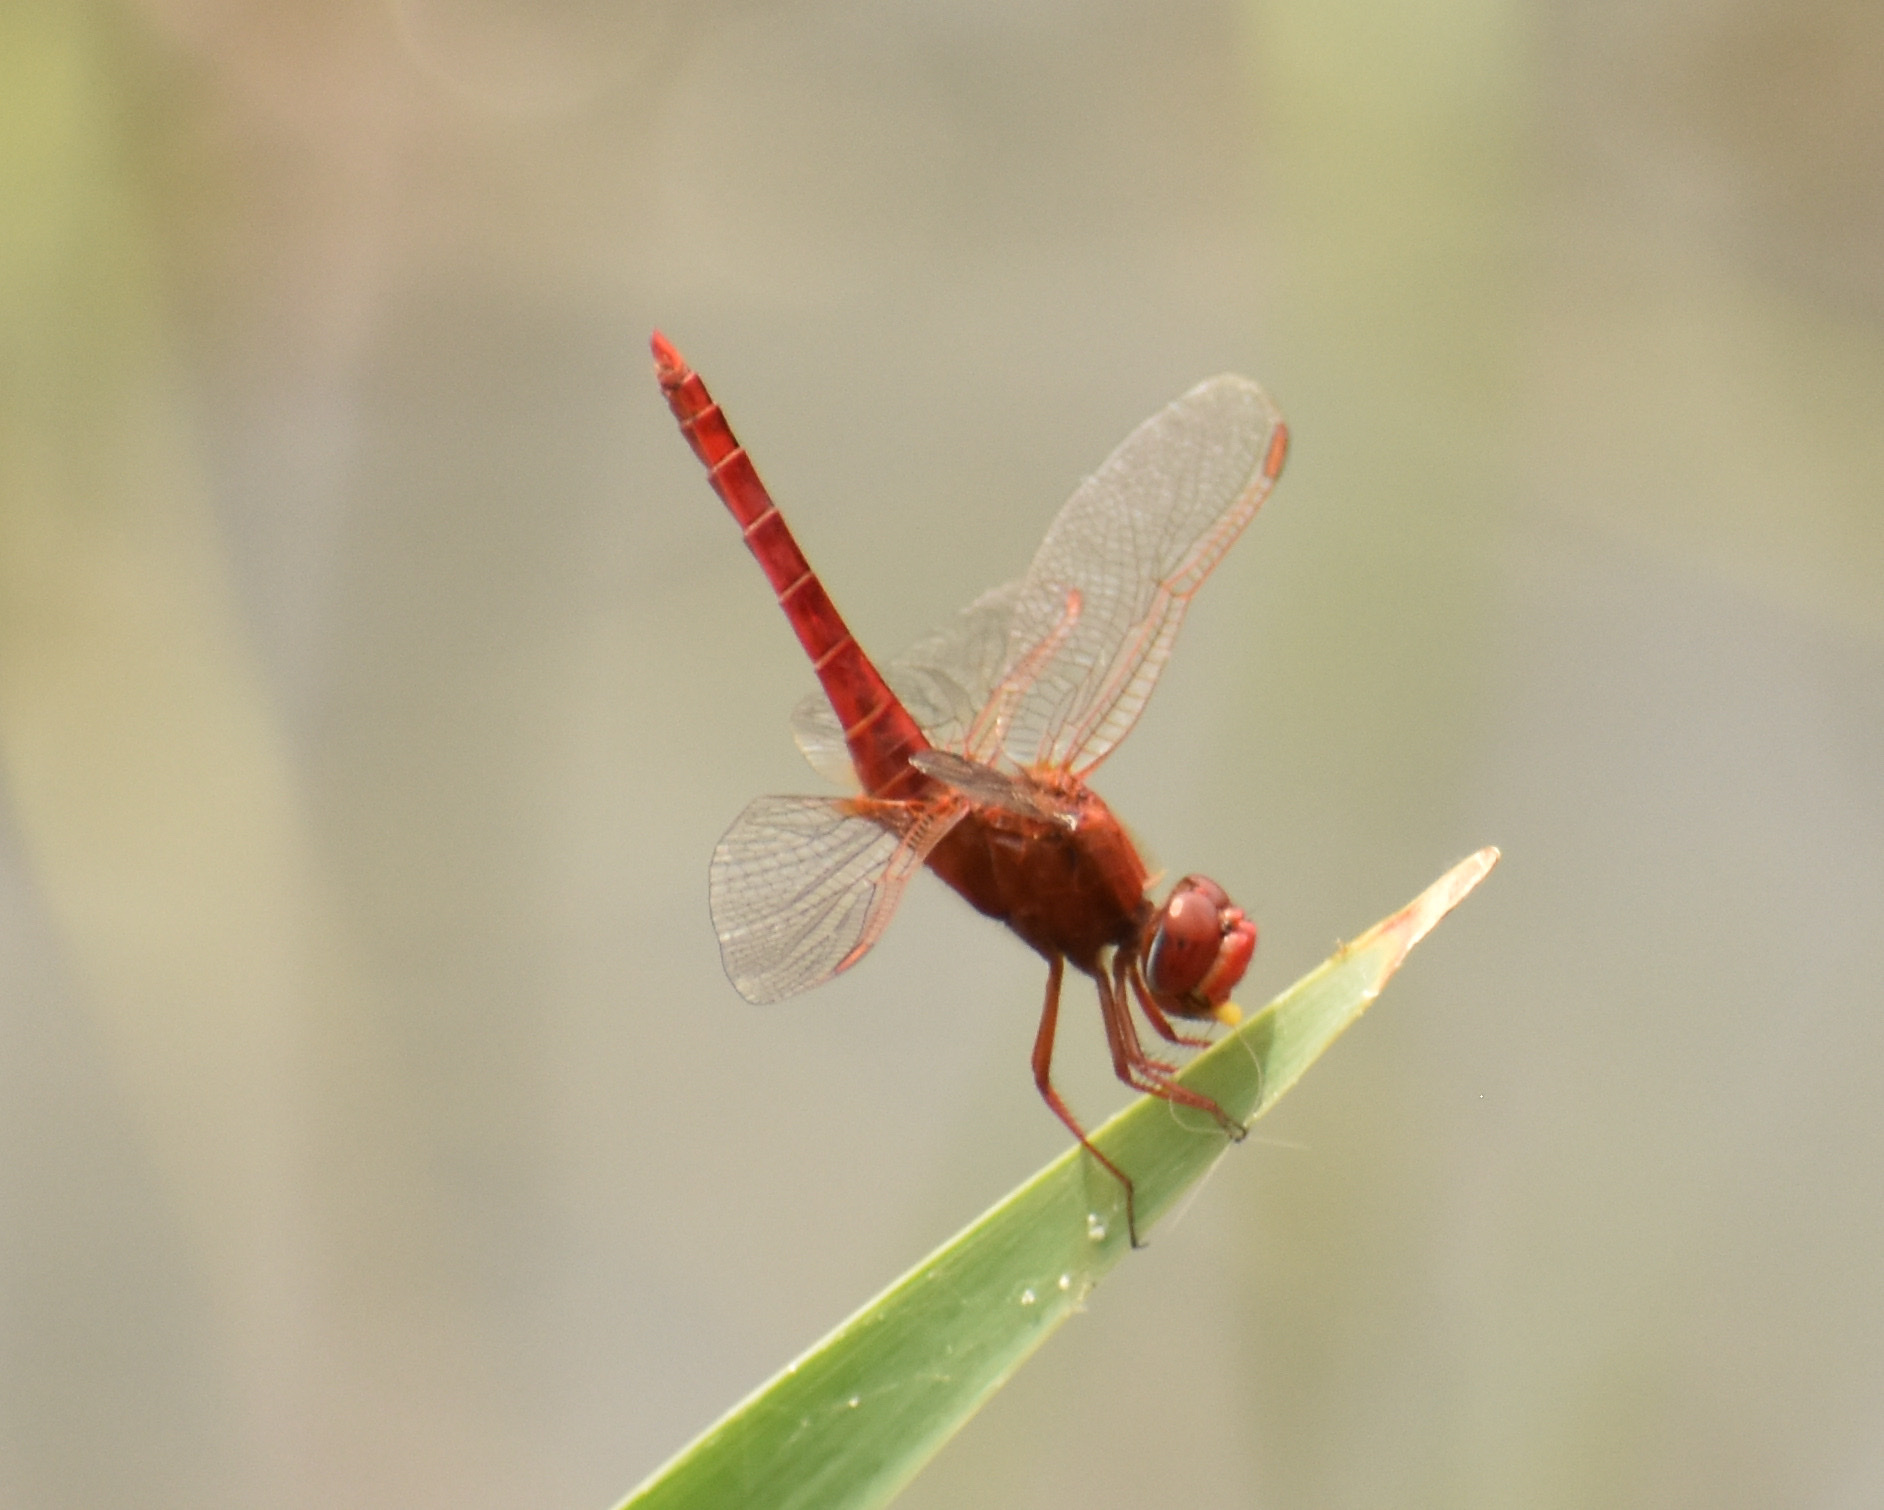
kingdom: Animalia
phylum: Arthropoda
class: Insecta
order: Odonata
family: Libellulidae
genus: Crocothemis
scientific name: Crocothemis erythraea
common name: Scarlet dragonfly
